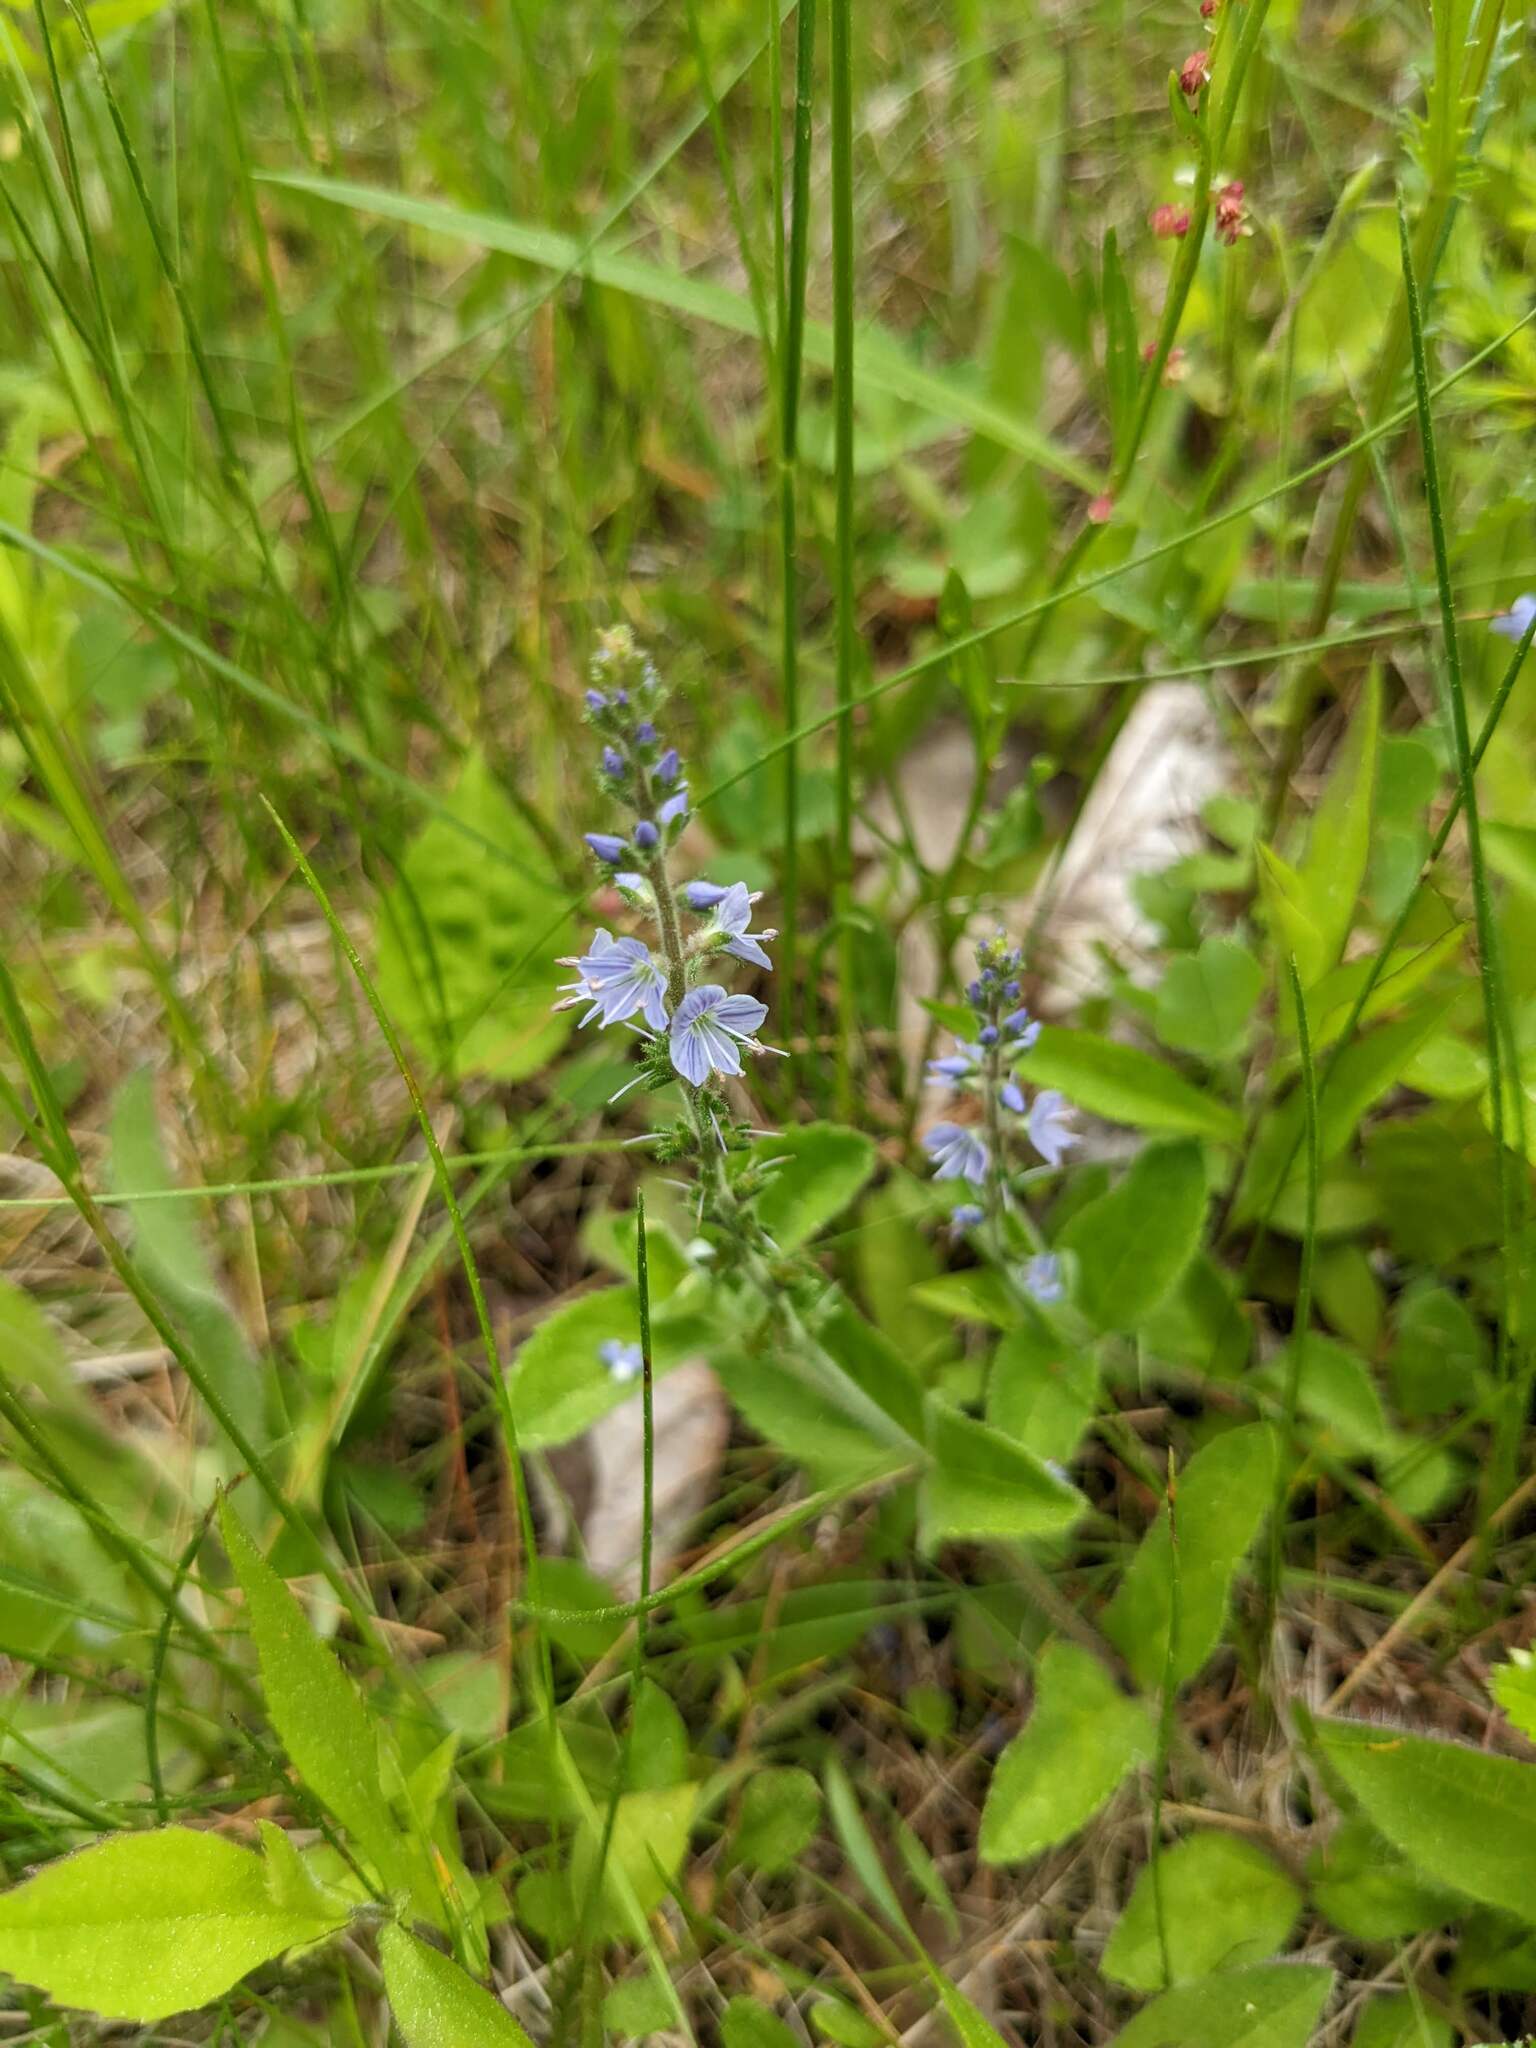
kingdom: Plantae
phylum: Tracheophyta
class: Magnoliopsida
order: Lamiales
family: Plantaginaceae
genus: Veronica
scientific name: Veronica officinalis
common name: Common speedwell
